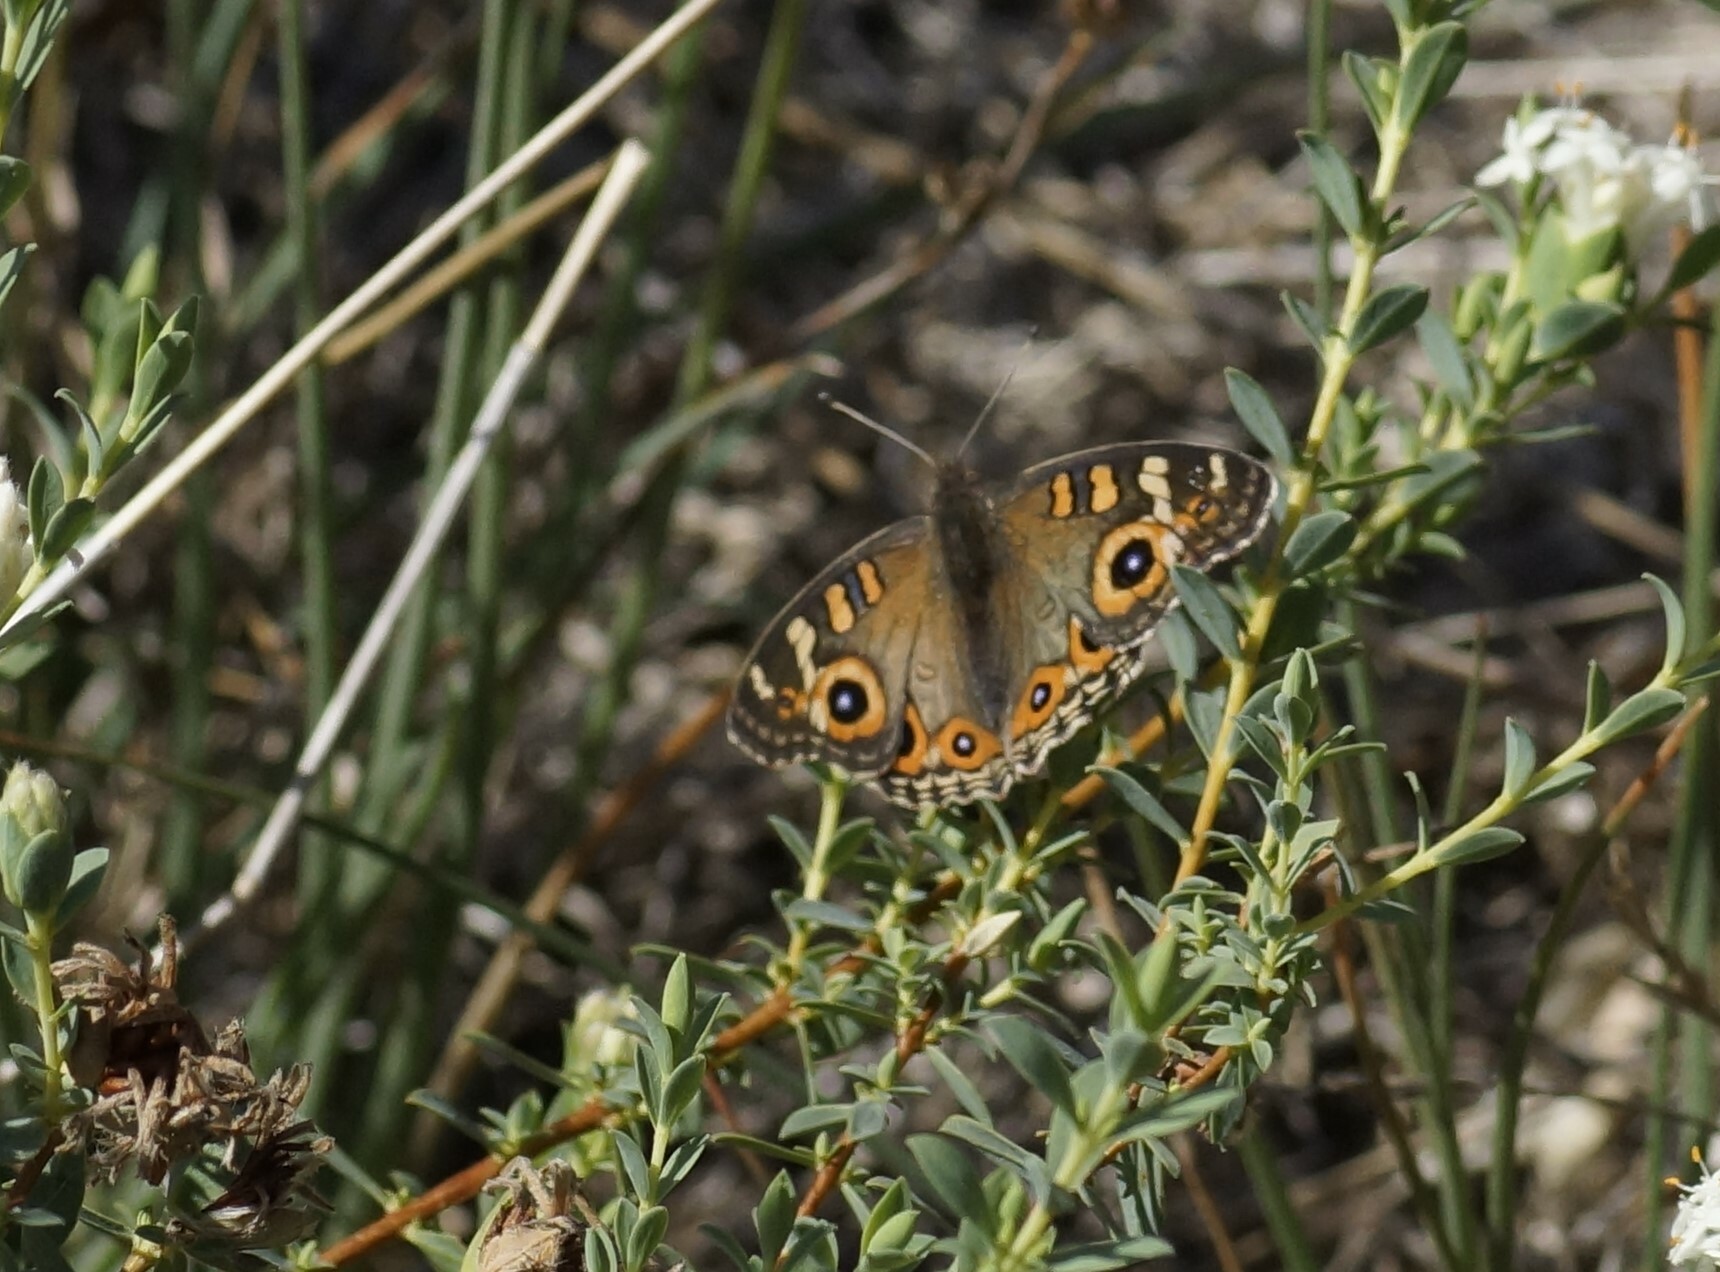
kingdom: Animalia
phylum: Arthropoda
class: Insecta
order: Lepidoptera
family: Nymphalidae
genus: Junonia
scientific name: Junonia villida
